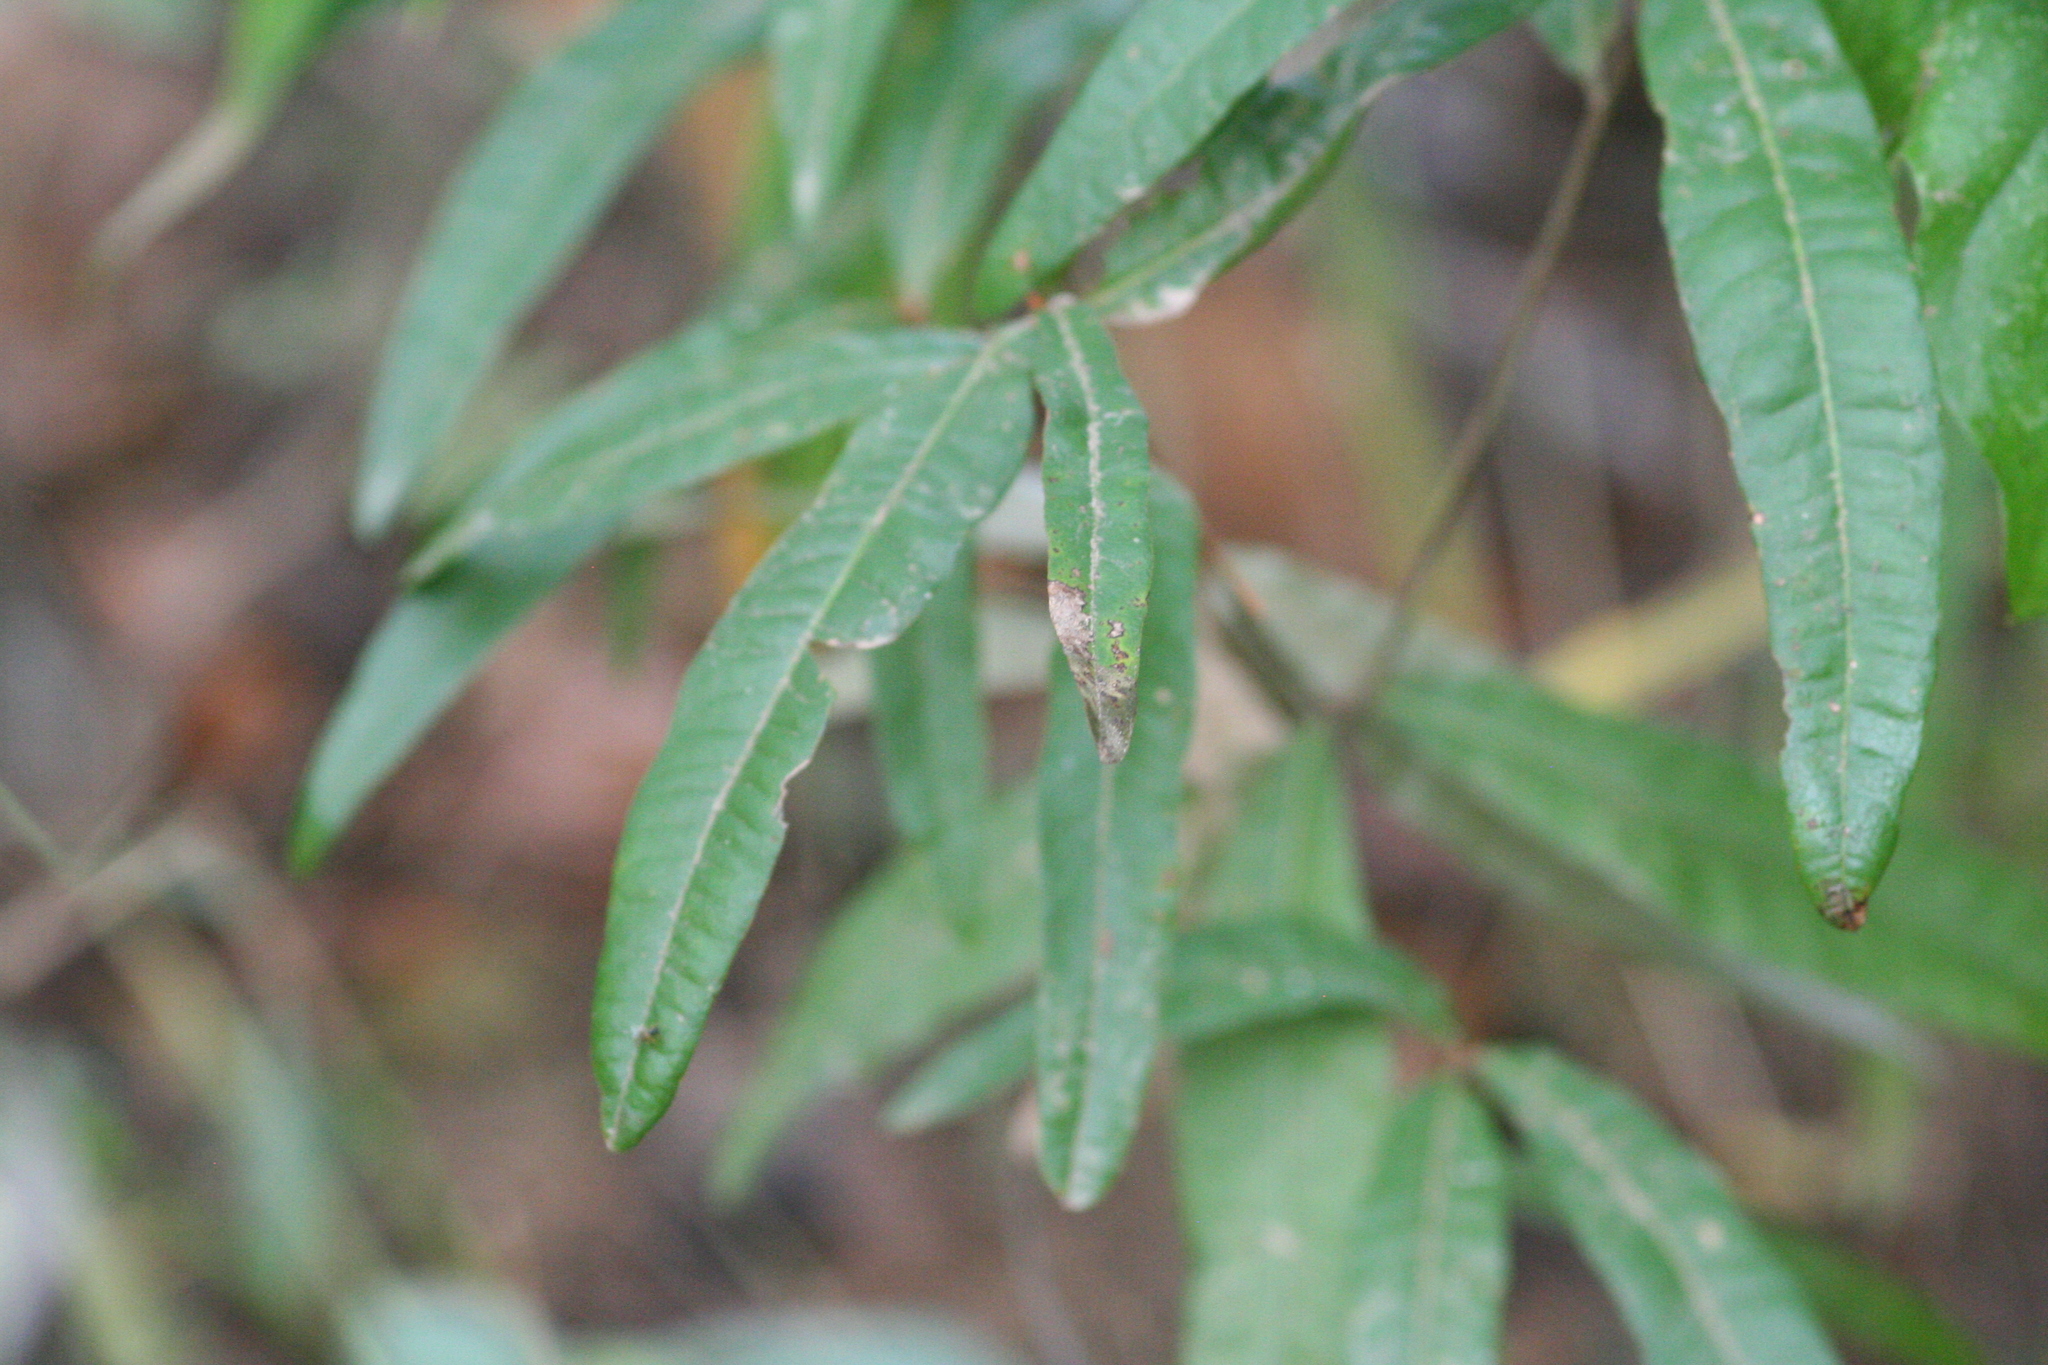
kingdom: Plantae
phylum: Tracheophyta
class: Magnoliopsida
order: Fagales
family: Fagaceae
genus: Quercus
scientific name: Quercus phellos
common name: Willow oak
